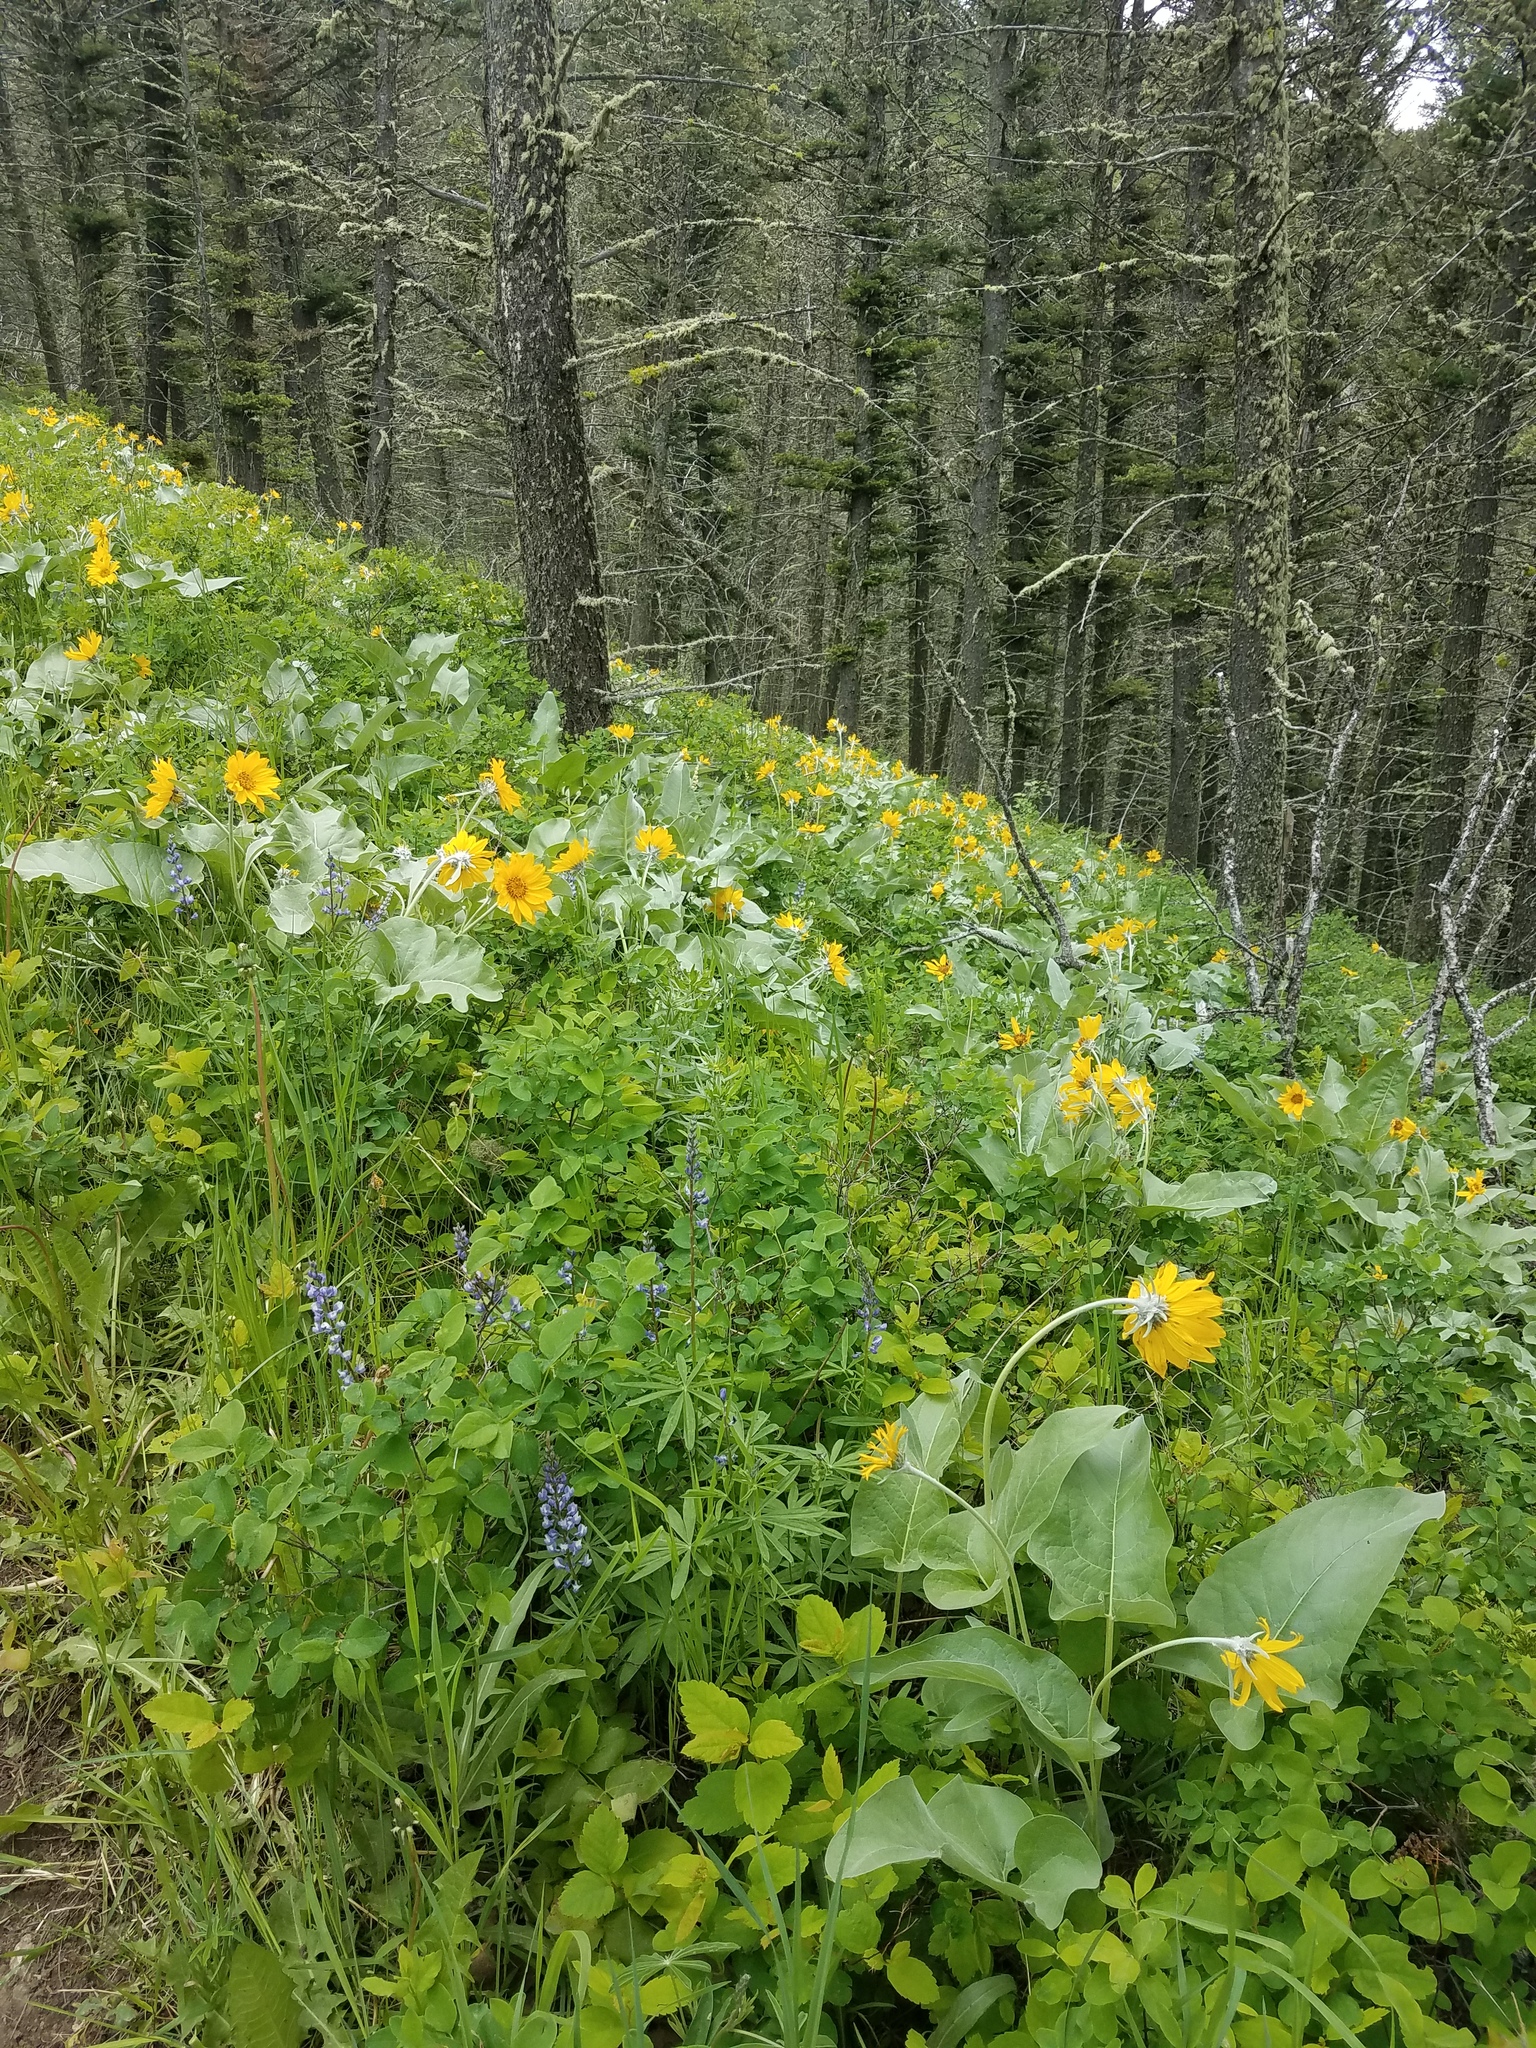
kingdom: Plantae
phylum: Tracheophyta
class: Magnoliopsida
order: Asterales
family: Asteraceae
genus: Wyethia
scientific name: Wyethia sagittata
